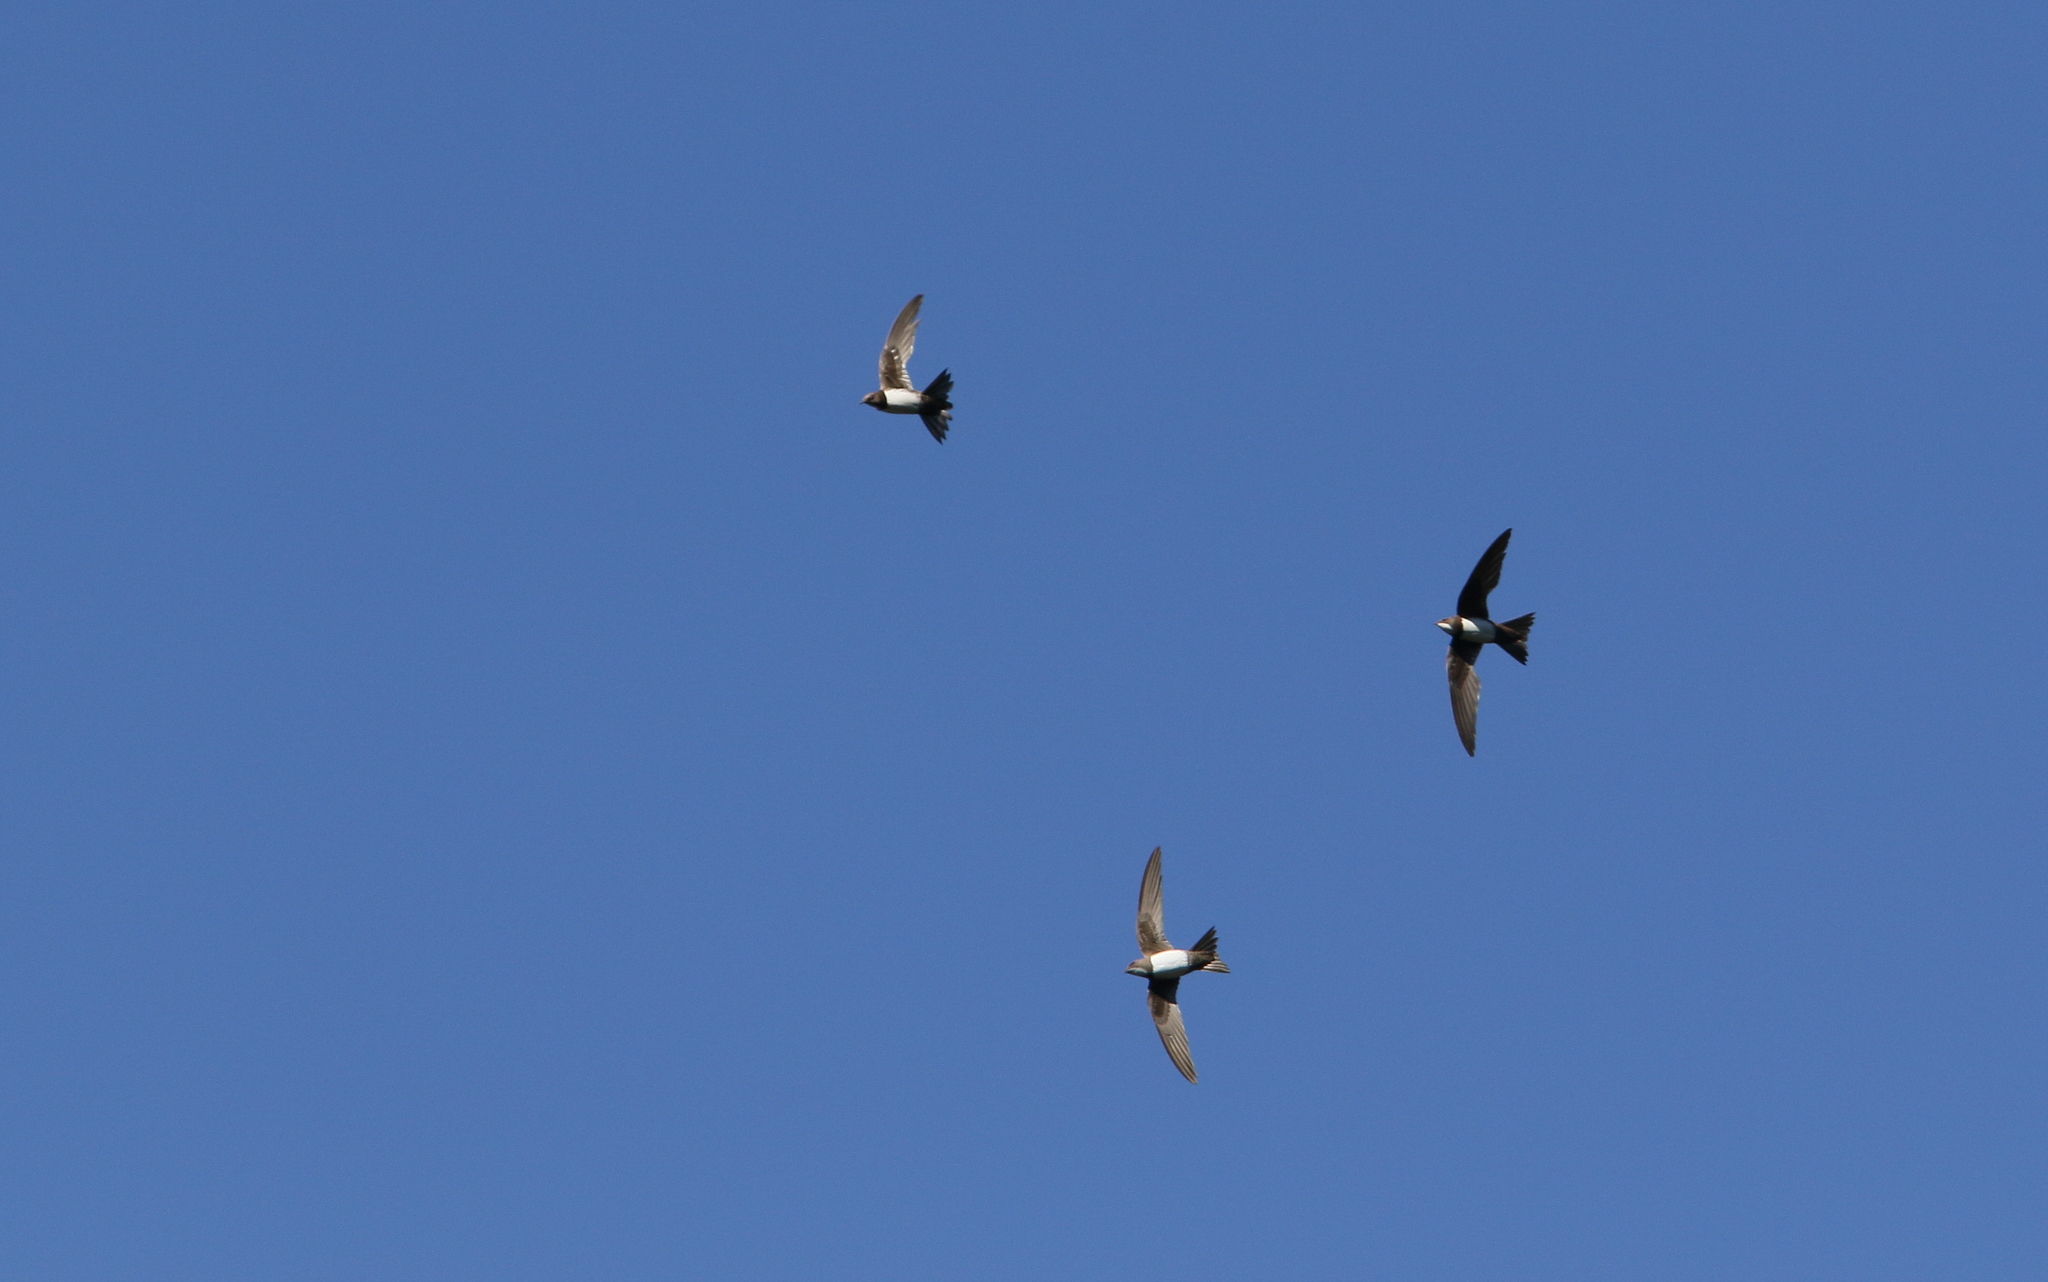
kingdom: Animalia
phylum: Chordata
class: Aves
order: Apodiformes
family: Apodidae
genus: Tachymarptis
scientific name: Tachymarptis melba
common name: Alpine swift
